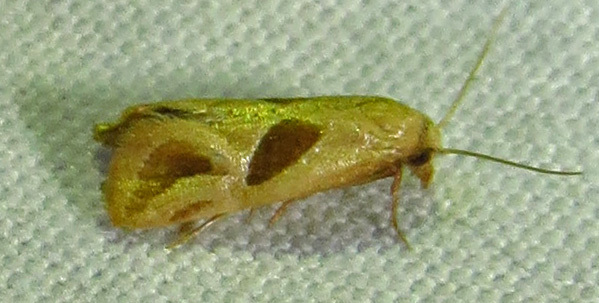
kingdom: Animalia
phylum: Arthropoda
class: Insecta
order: Lepidoptera
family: Tortricidae
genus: Eugnosta
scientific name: Eugnosta bimaculana
